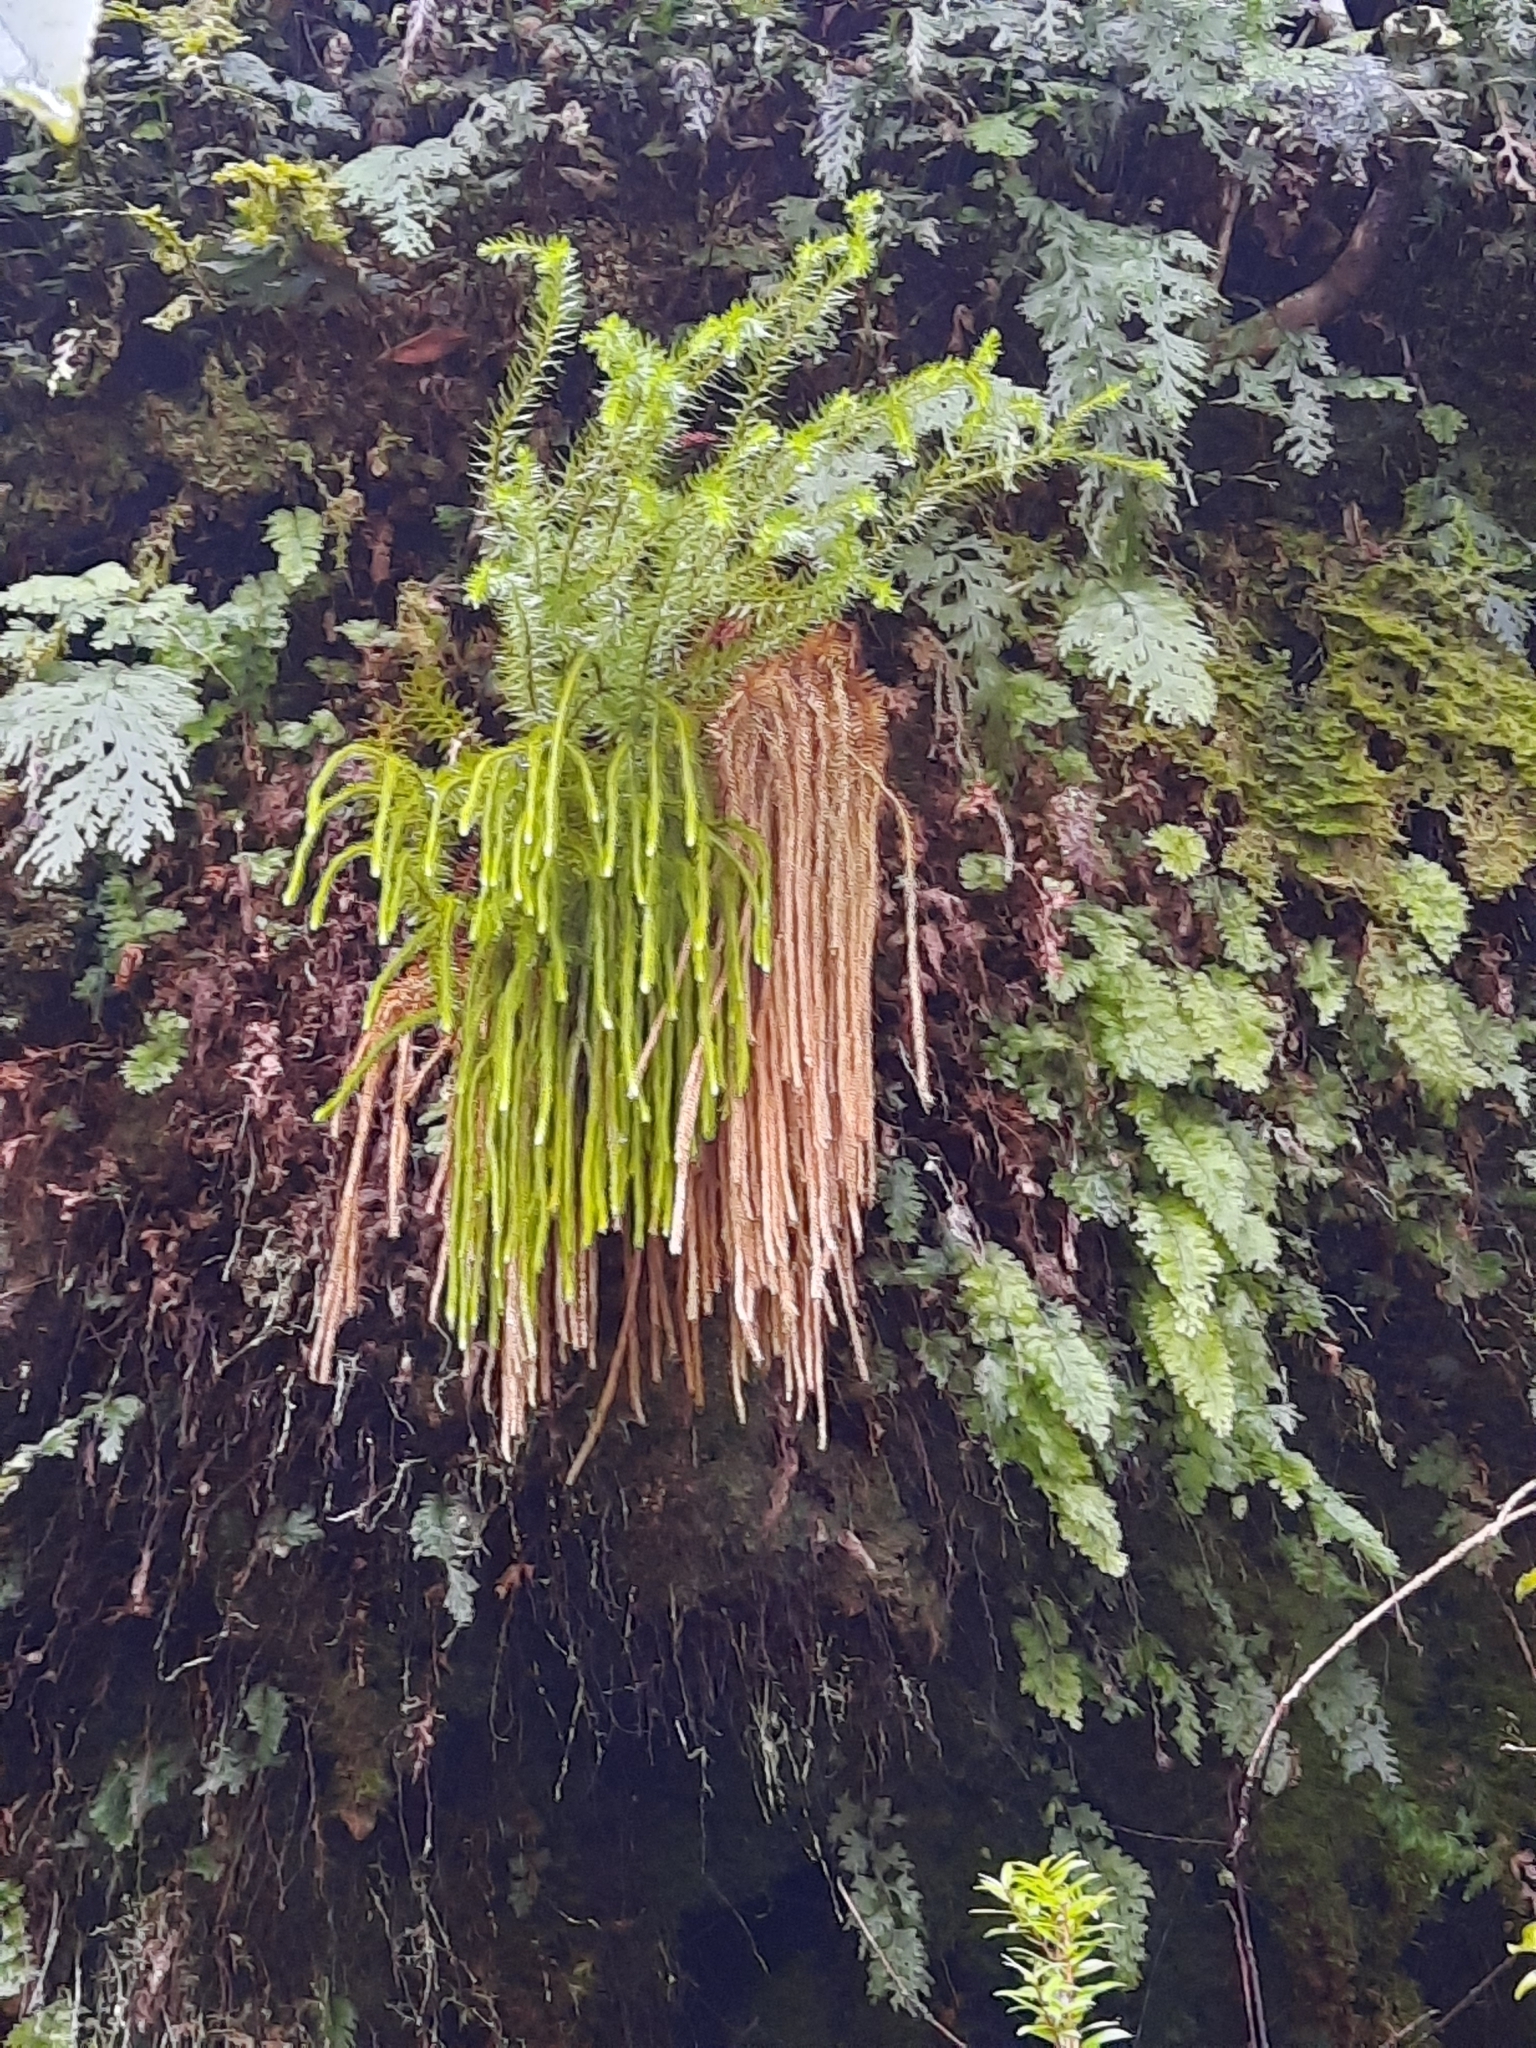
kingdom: Plantae
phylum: Tracheophyta
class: Lycopodiopsida
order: Lycopodiales
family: Lycopodiaceae
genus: Phlegmariurus
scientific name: Phlegmariurus varius
